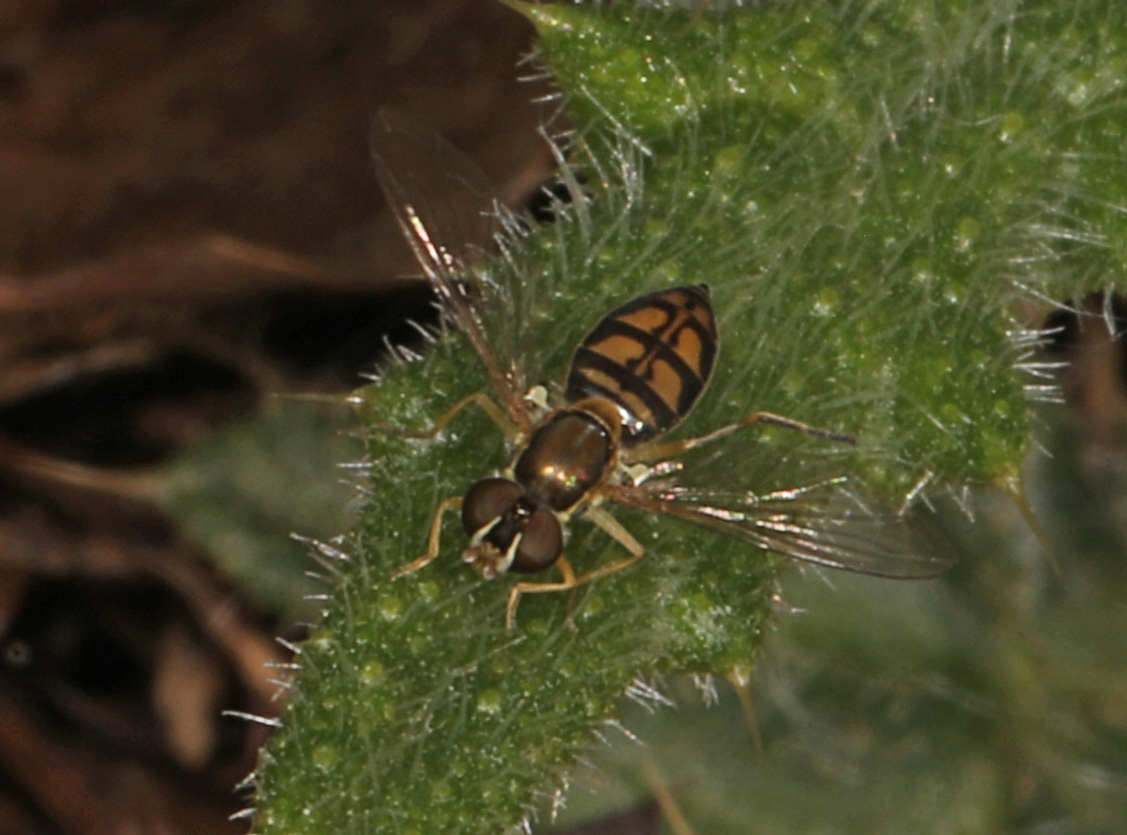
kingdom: Animalia
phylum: Arthropoda
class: Insecta
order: Diptera
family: Syrphidae
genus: Toxomerus
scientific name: Toxomerus marginatus
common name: Syrphid fly
